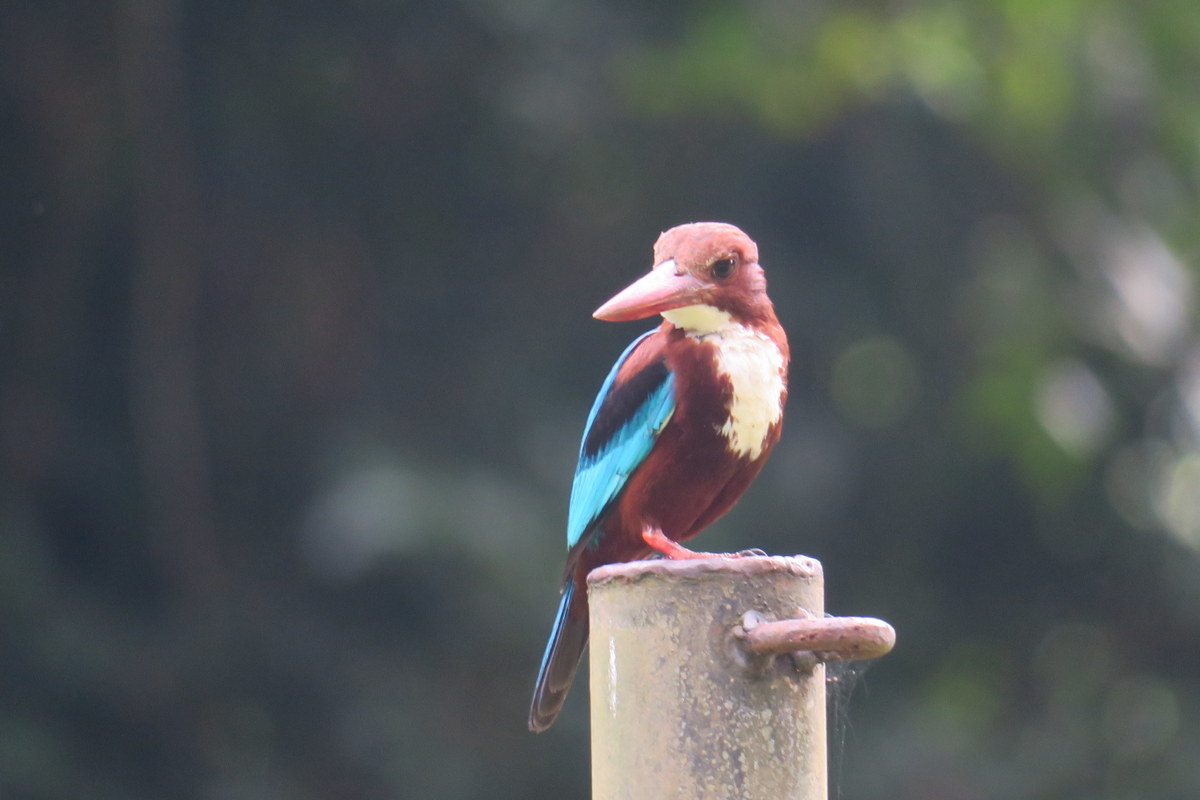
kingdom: Animalia
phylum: Chordata
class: Aves
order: Coraciiformes
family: Alcedinidae
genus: Halcyon
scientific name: Halcyon smyrnensis
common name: White-throated kingfisher
